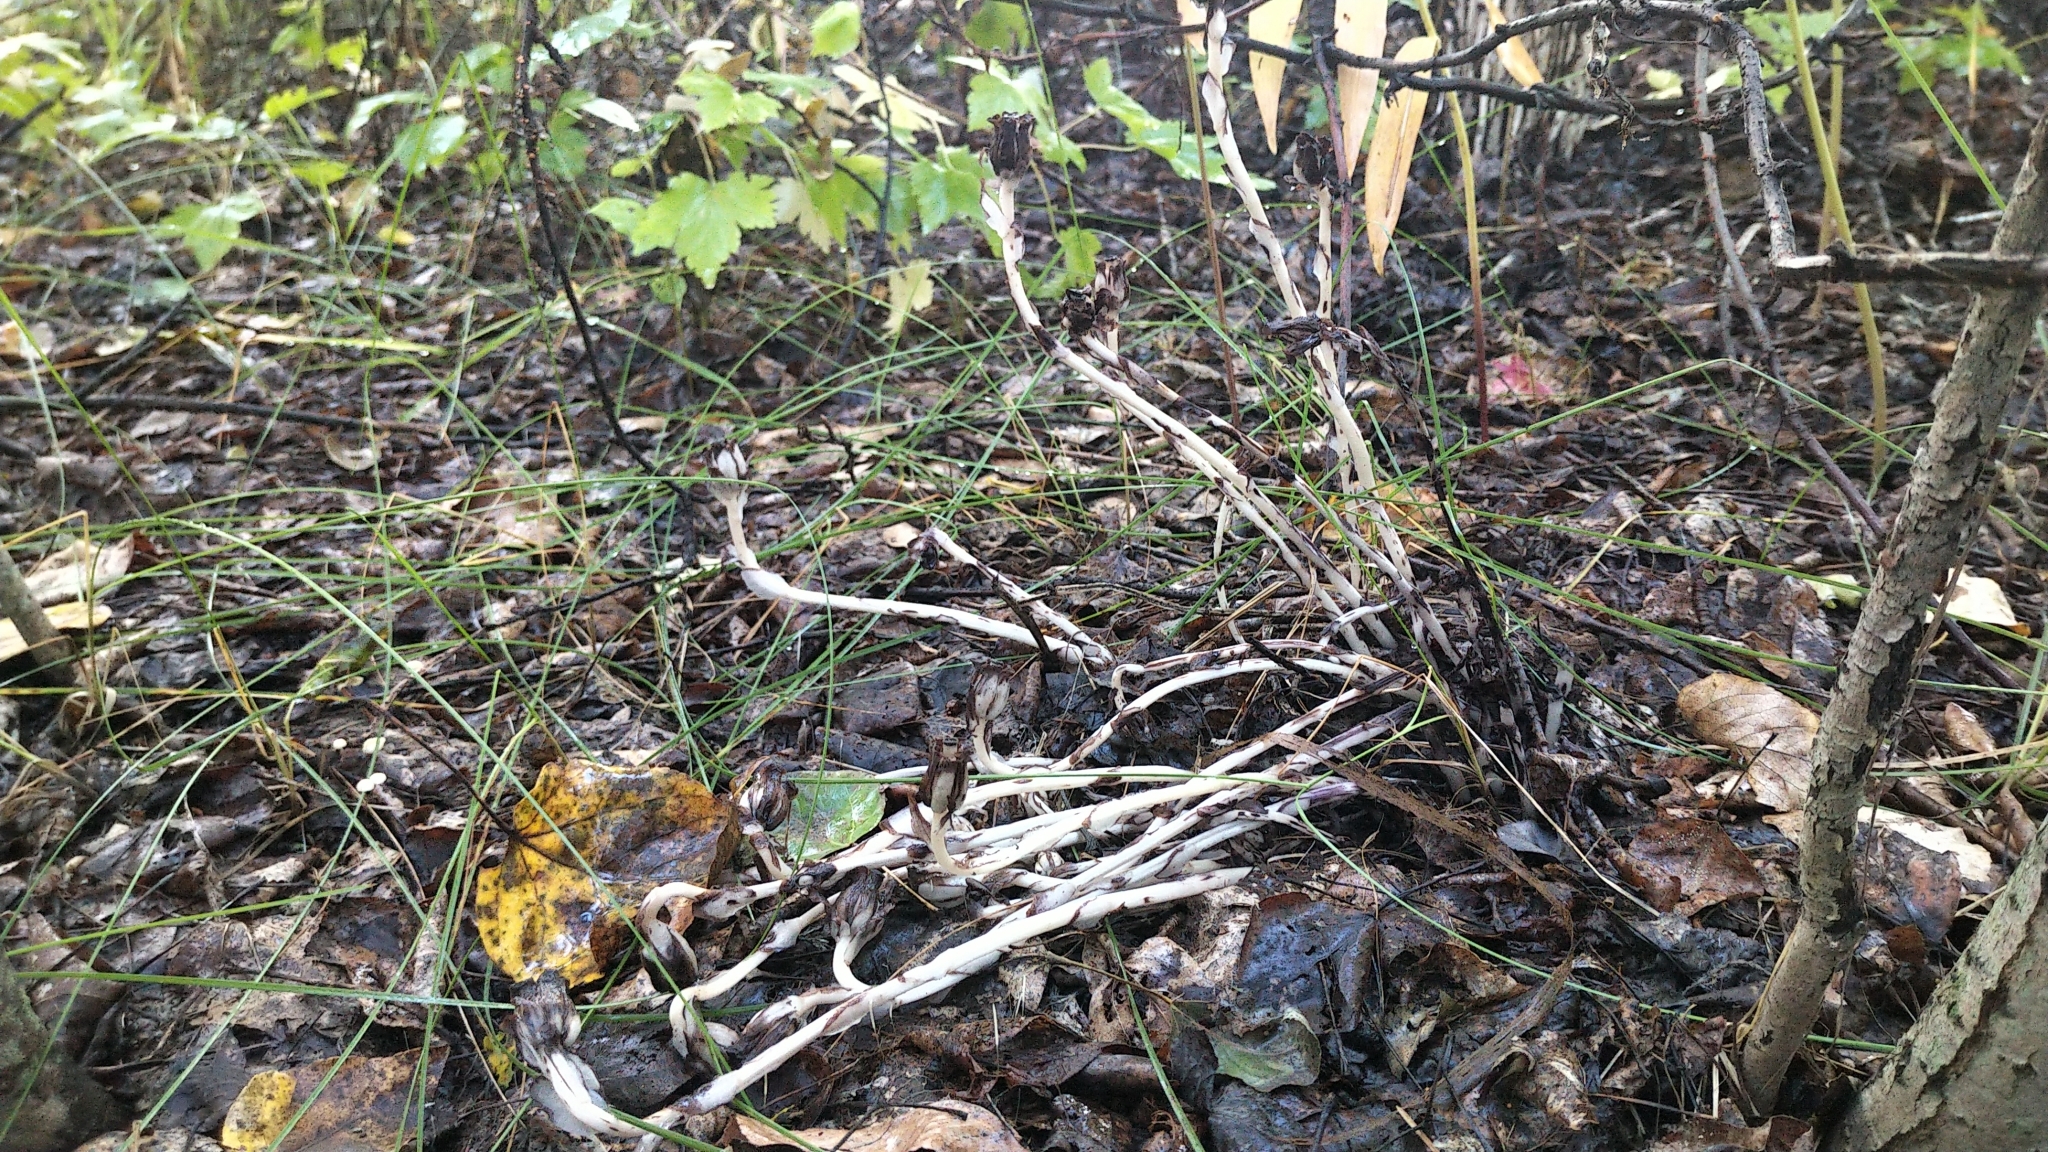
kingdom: Plantae
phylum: Tracheophyta
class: Magnoliopsida
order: Ericales
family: Ericaceae
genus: Monotropa
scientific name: Monotropa uniflora
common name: Convulsion root
